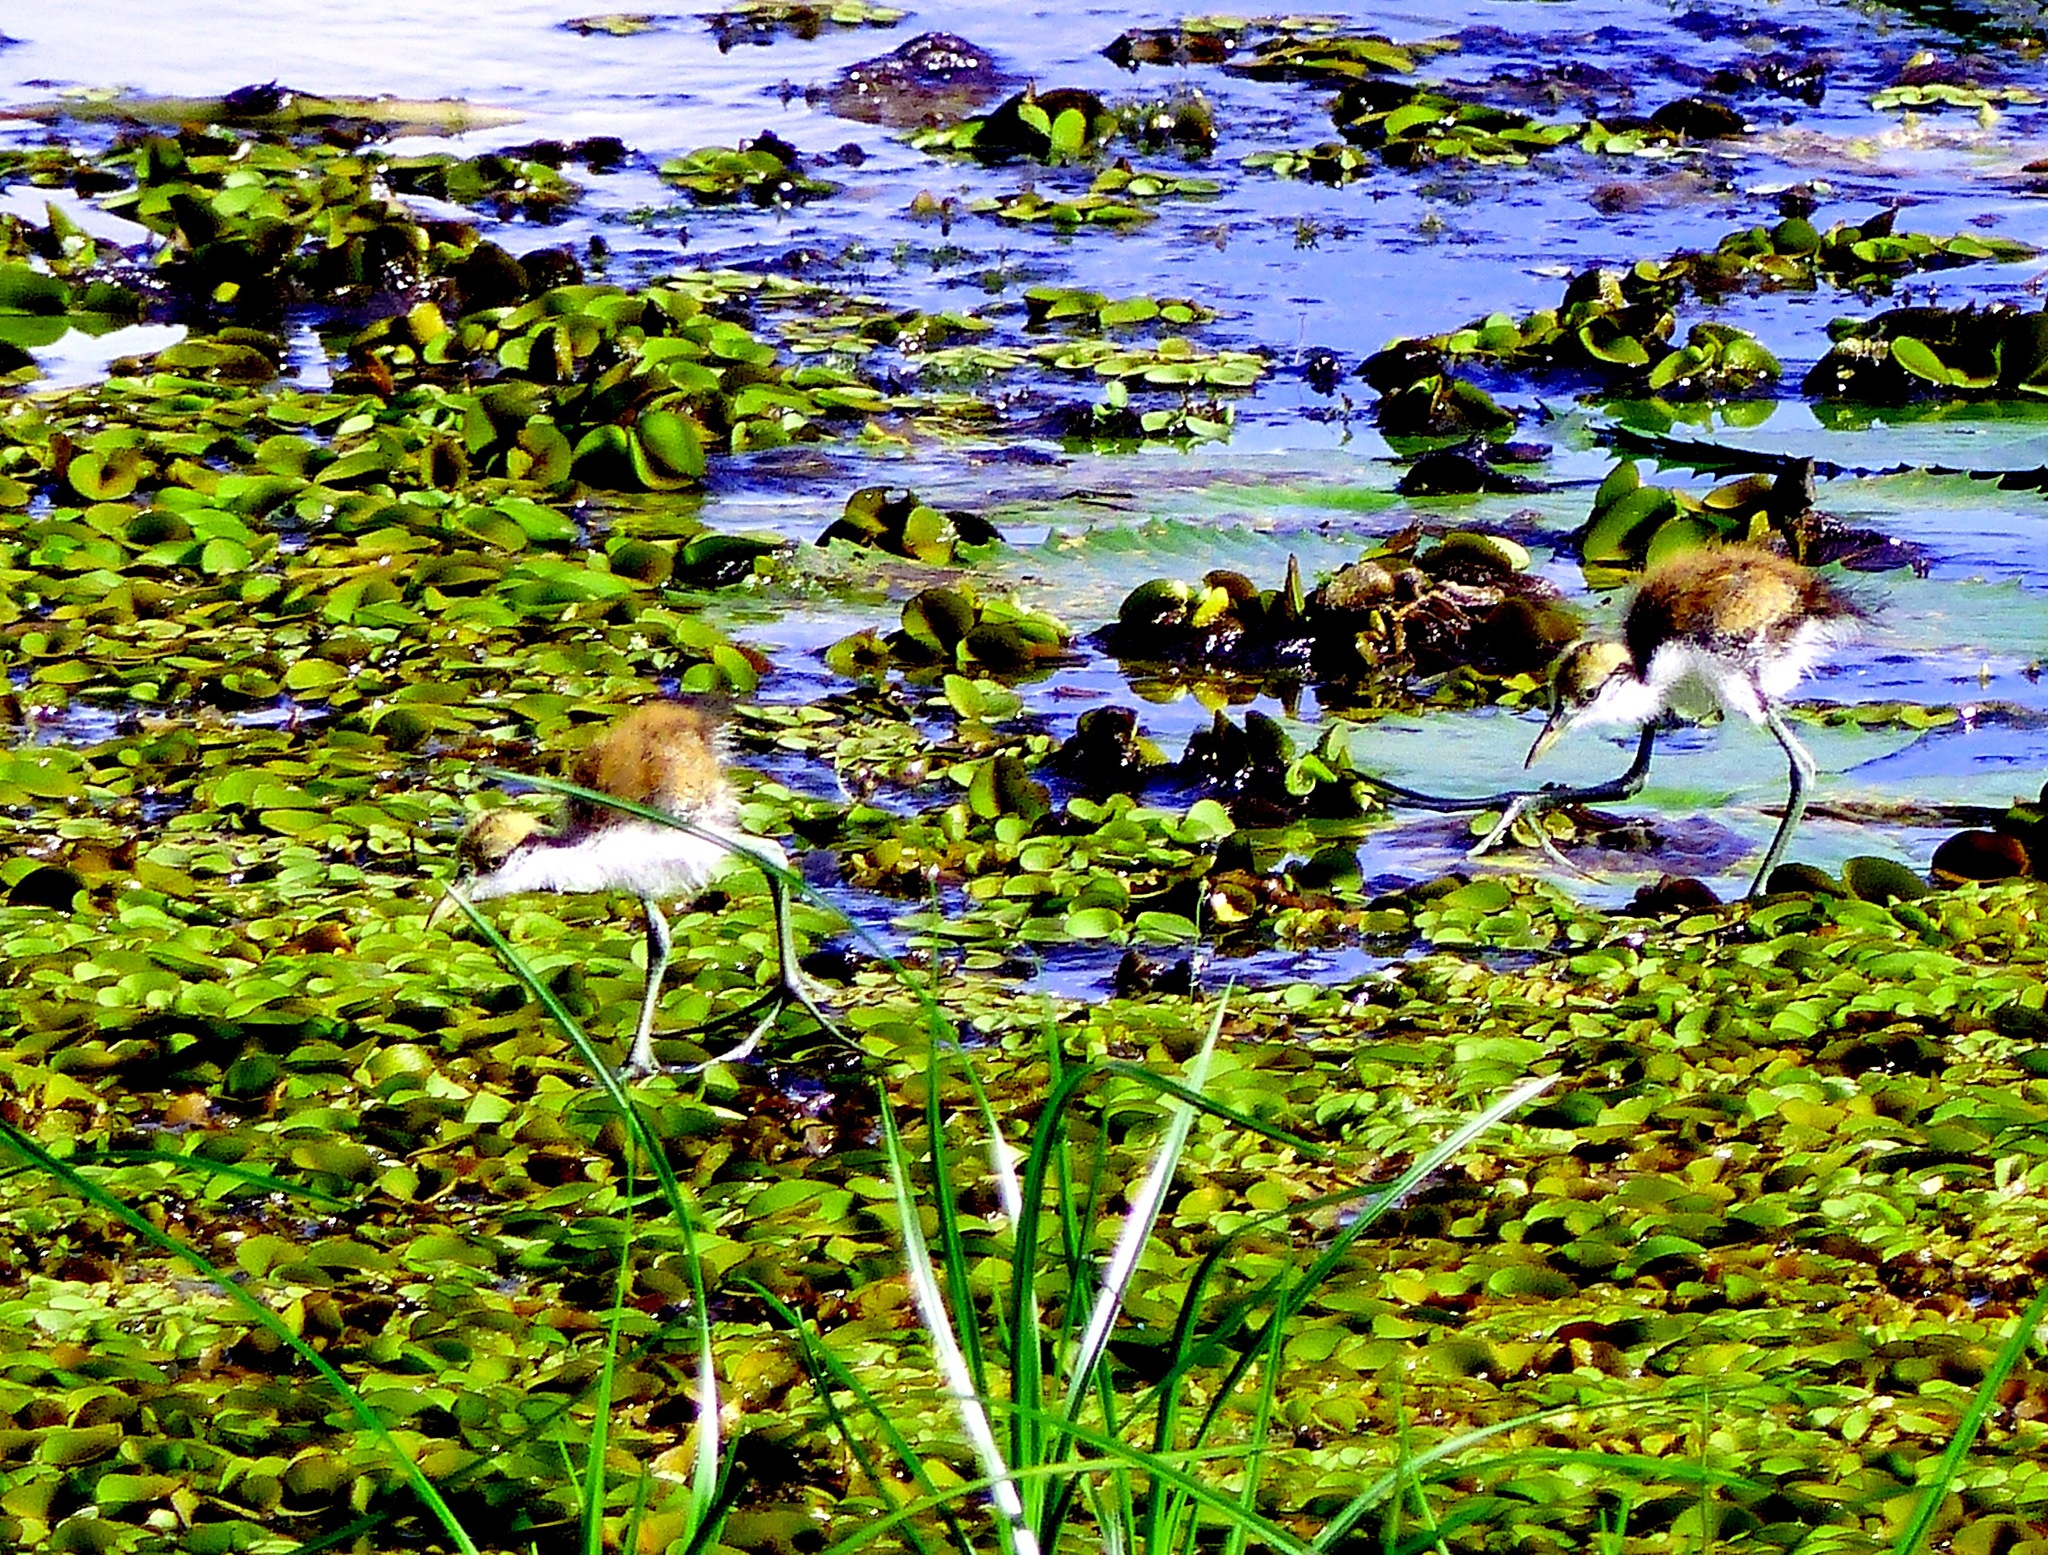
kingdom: Animalia
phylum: Chordata
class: Aves
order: Charadriiformes
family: Jacanidae
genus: Jacana
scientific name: Jacana jacana
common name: Wattled jacana
